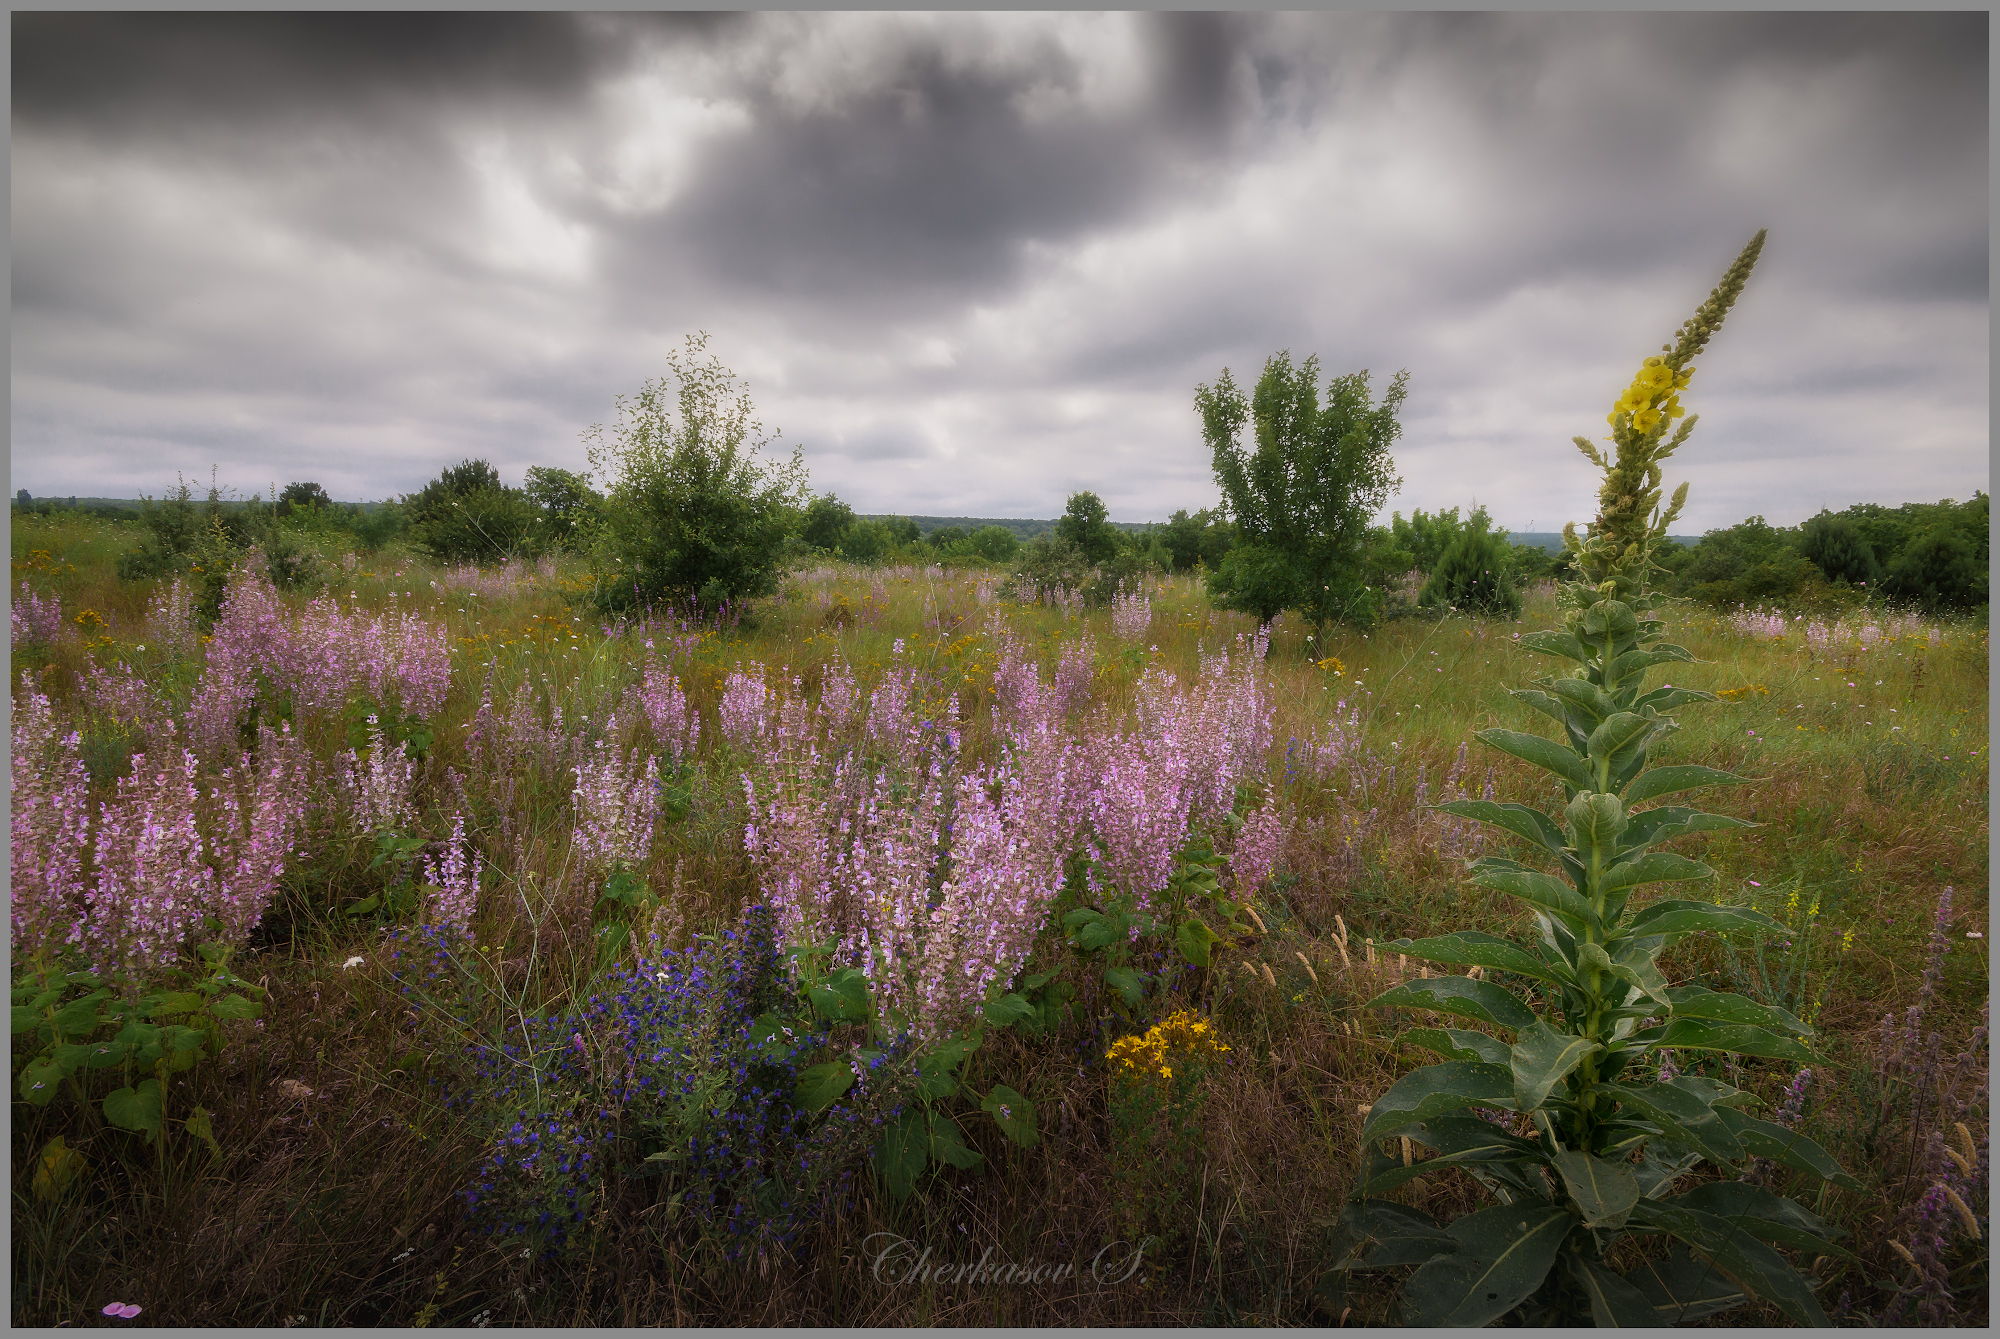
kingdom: Plantae
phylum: Tracheophyta
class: Magnoliopsida
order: Lamiales
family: Lamiaceae
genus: Salvia
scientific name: Salvia sclarea
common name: Clary
